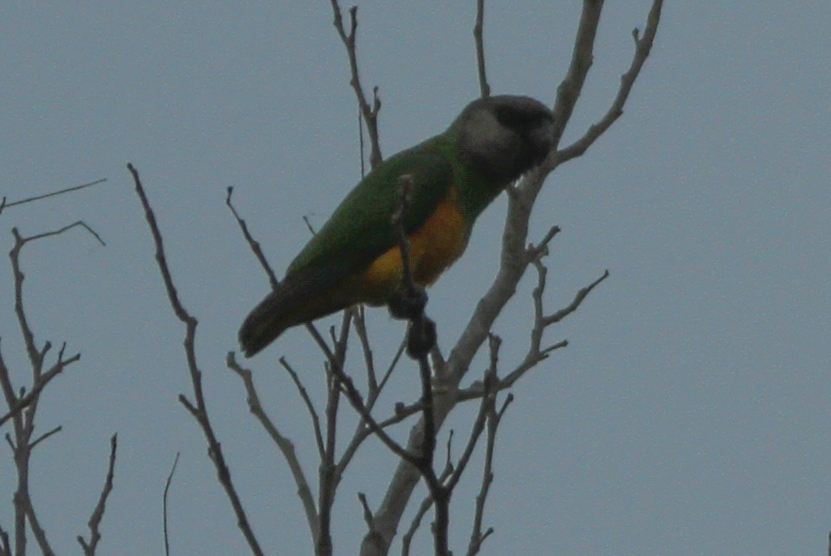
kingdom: Animalia
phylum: Chordata
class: Aves
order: Psittaciformes
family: Psittacidae
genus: Poicephalus
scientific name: Poicephalus senegalus
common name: Senegal parrot
